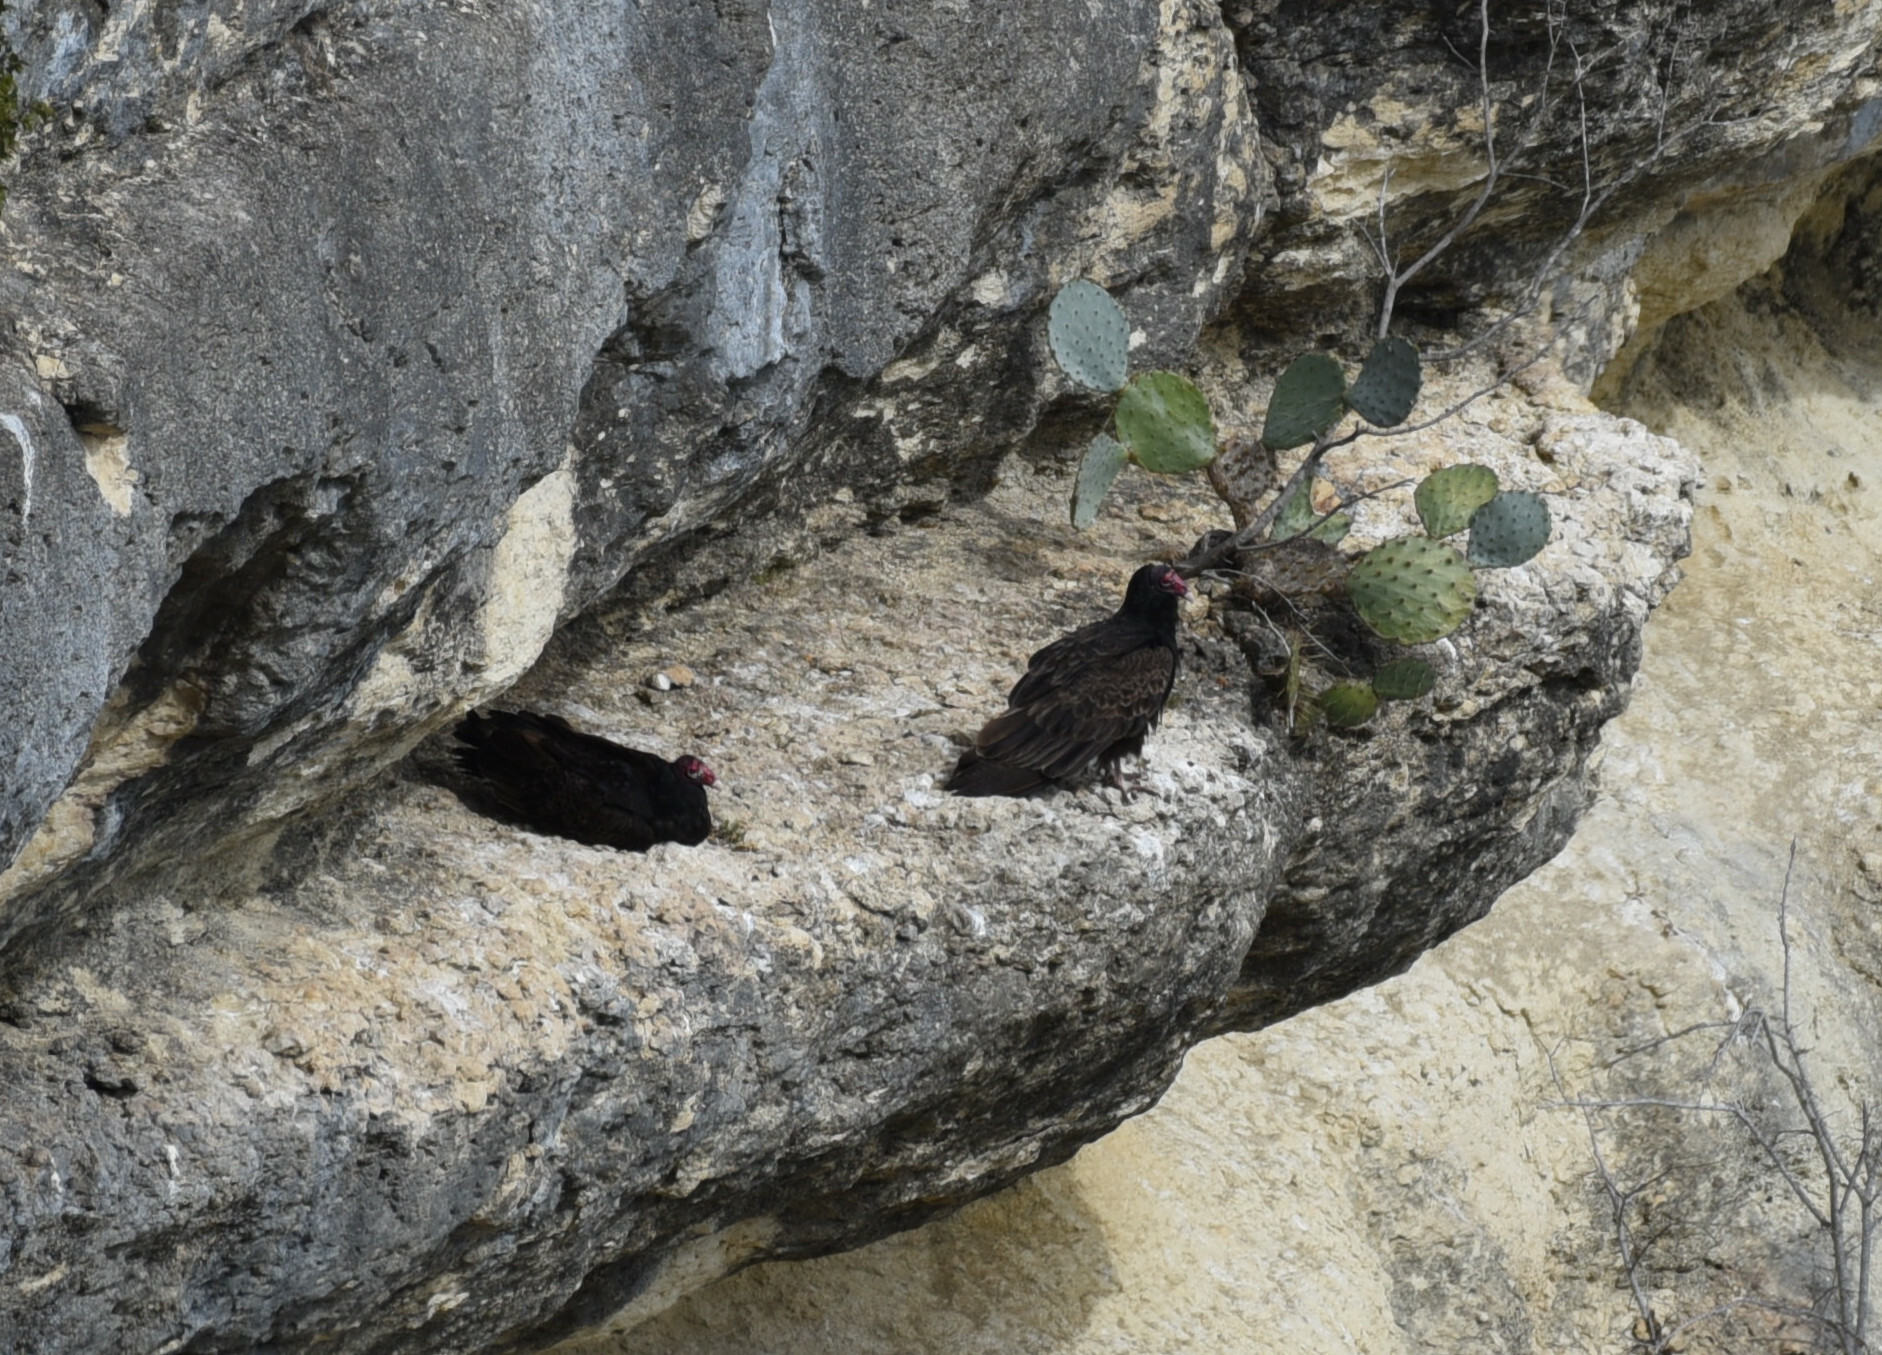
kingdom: Animalia
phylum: Chordata
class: Aves
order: Accipitriformes
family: Cathartidae
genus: Cathartes
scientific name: Cathartes aura
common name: Turkey vulture
